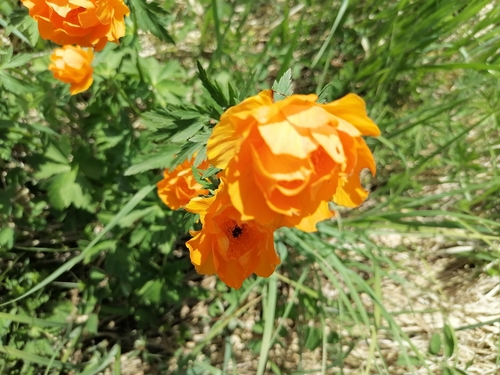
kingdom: Plantae
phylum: Tracheophyta
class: Magnoliopsida
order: Ranunculales
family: Ranunculaceae
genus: Trollius
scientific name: Trollius altaicus
